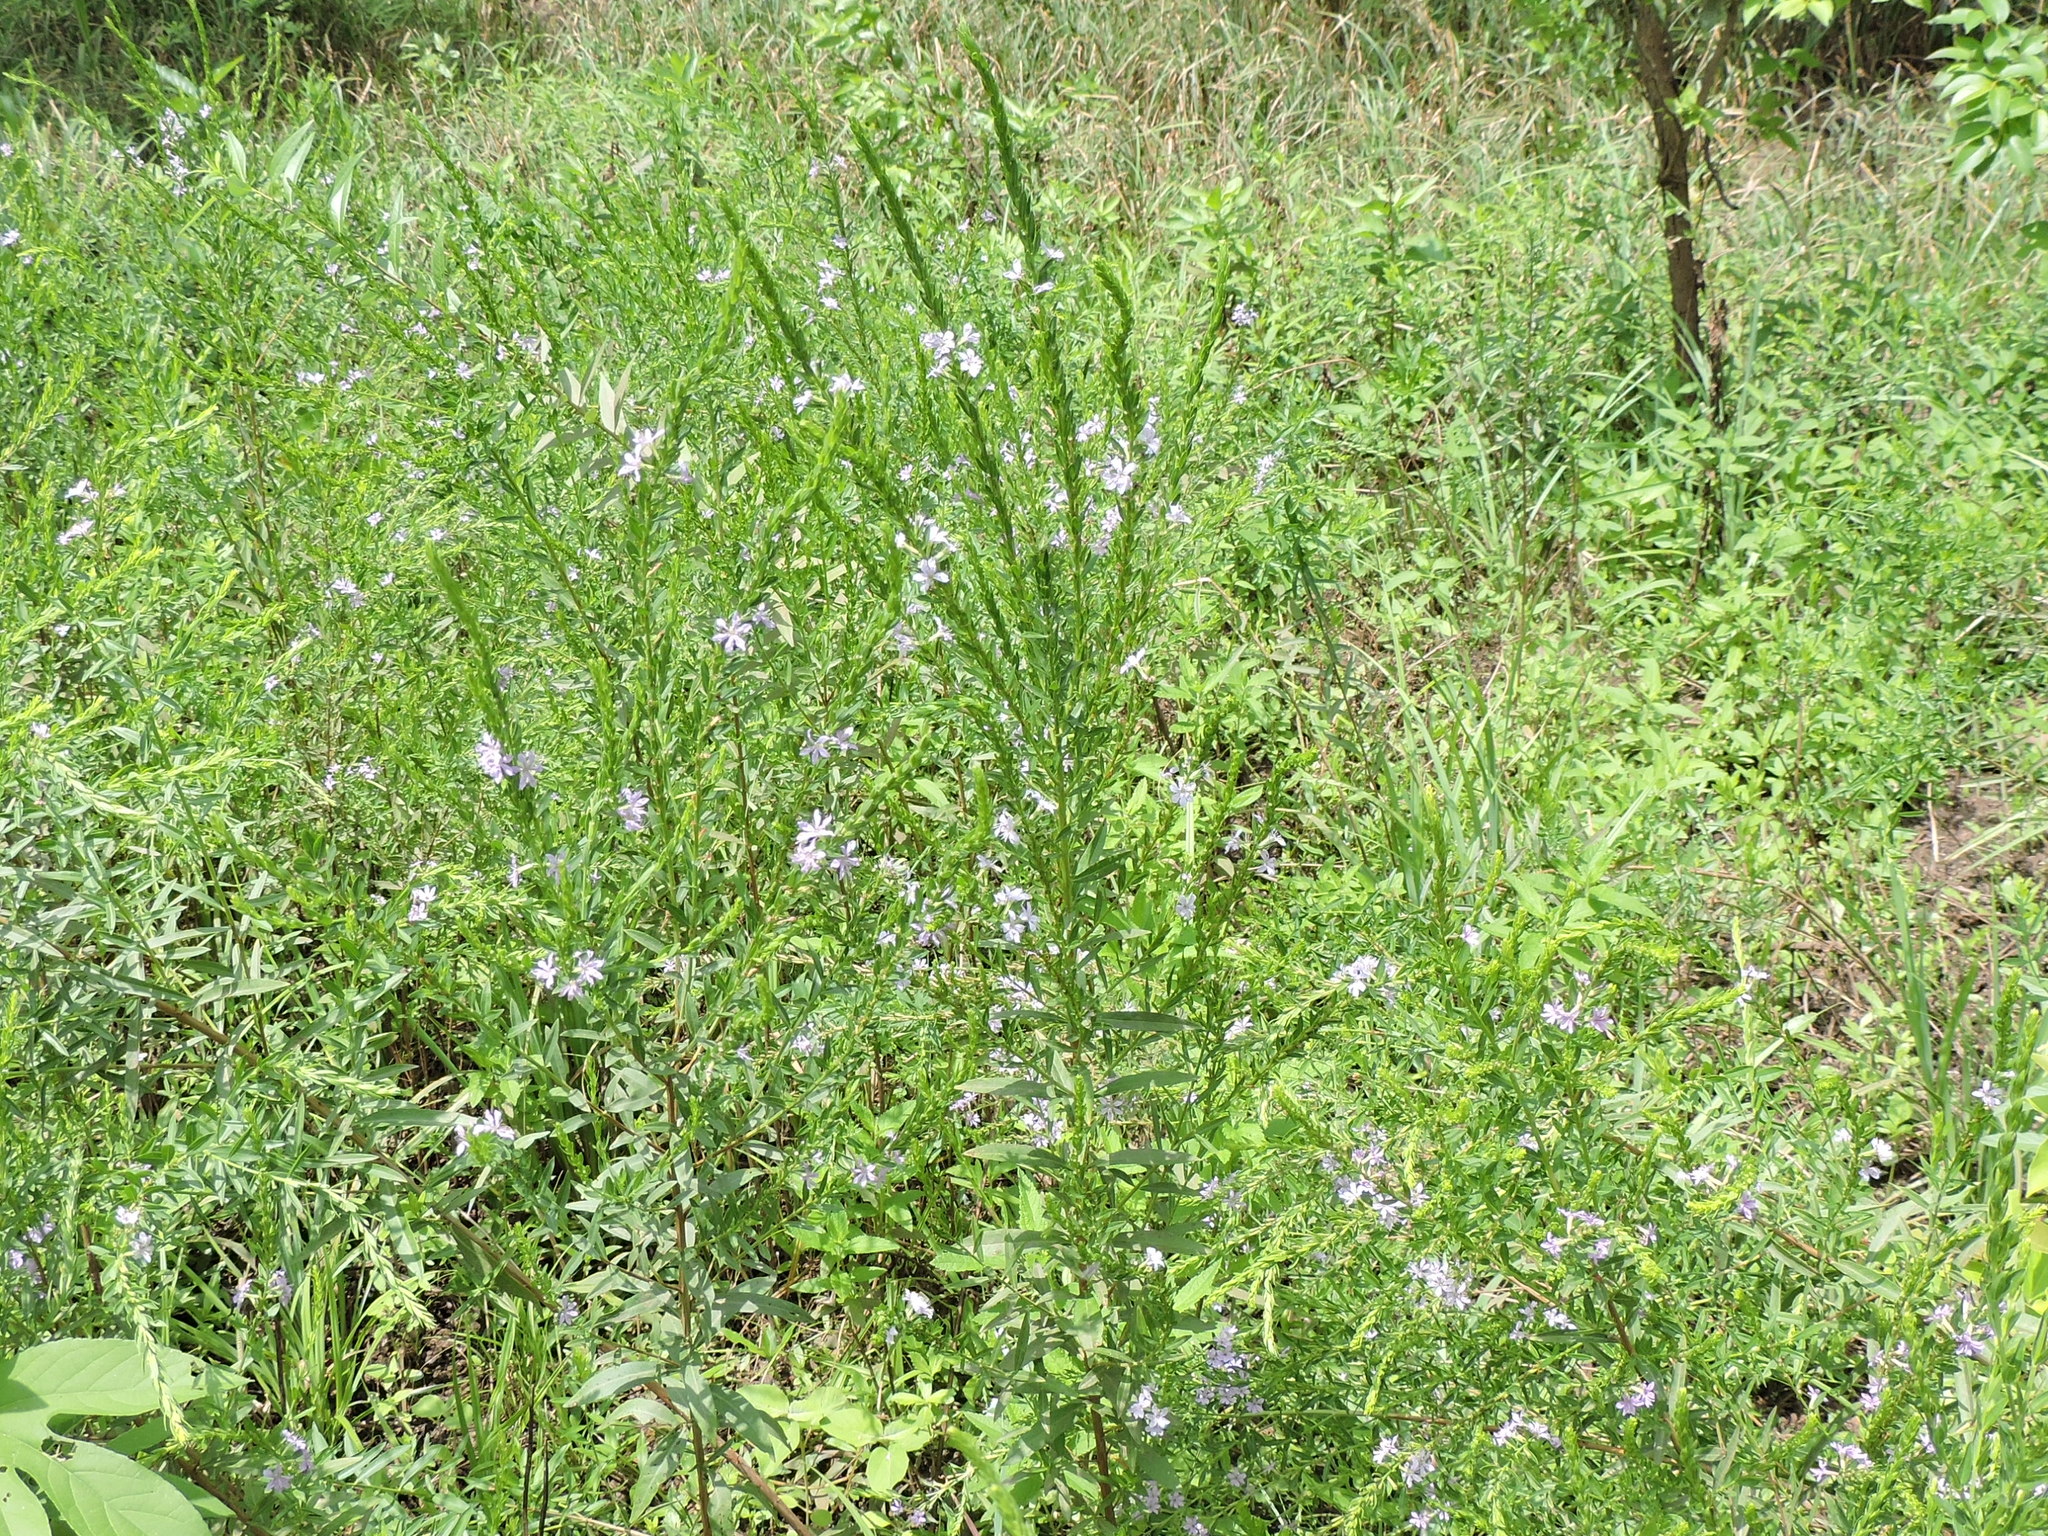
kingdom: Plantae
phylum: Tracheophyta
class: Magnoliopsida
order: Myrtales
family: Lythraceae
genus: Lythrum
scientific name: Lythrum alatum
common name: Winged loosestrife
